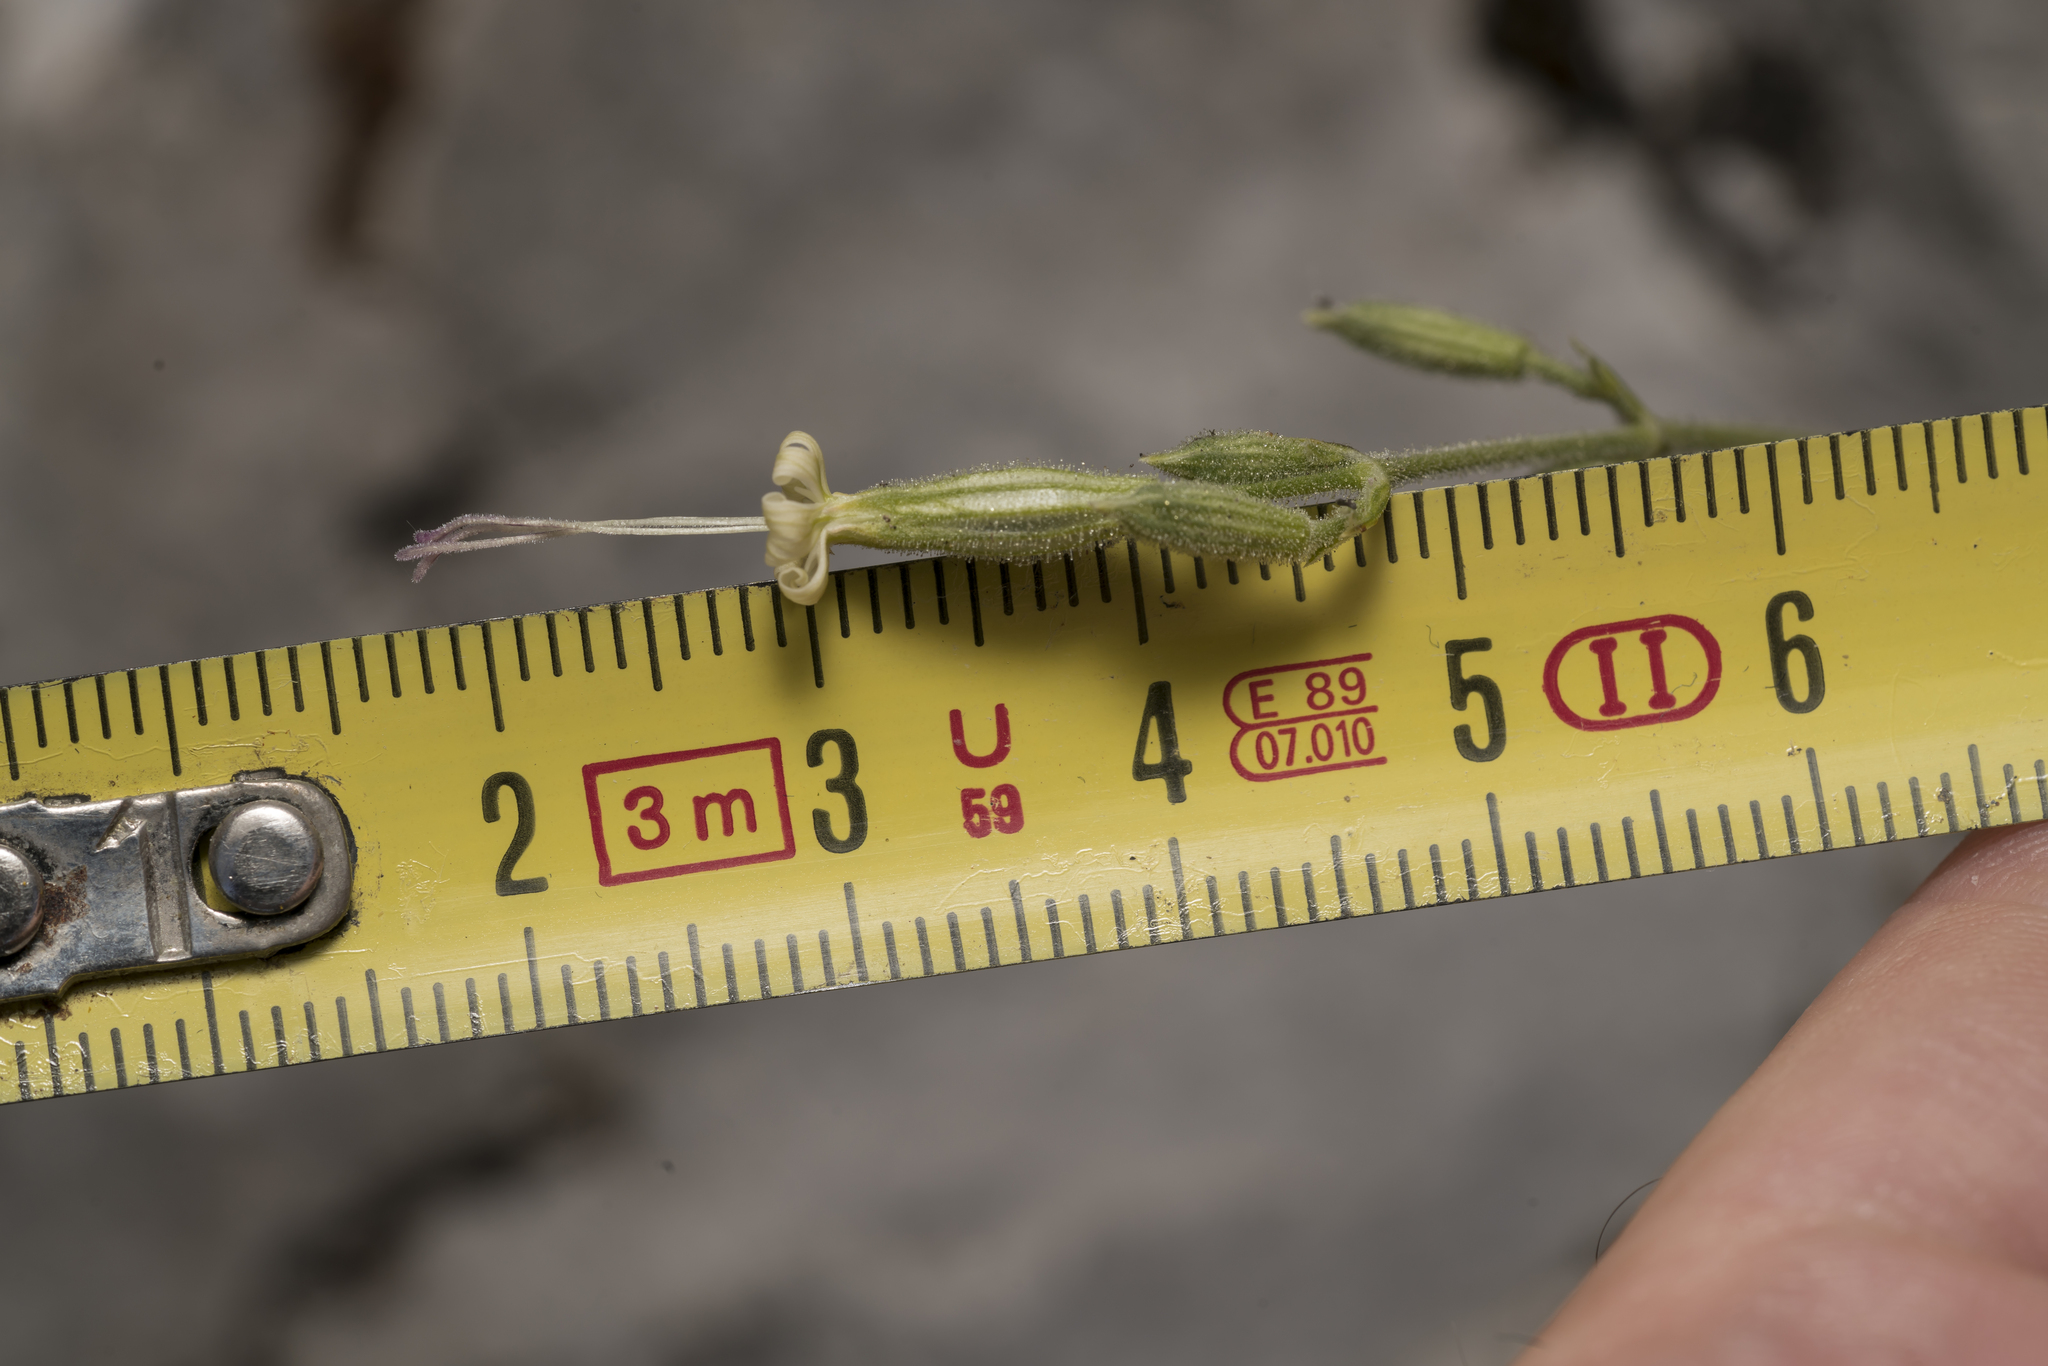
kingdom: Plantae
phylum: Tracheophyta
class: Magnoliopsida
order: Caryophyllales
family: Caryophyllaceae
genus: Silene
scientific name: Silene nutans
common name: Nottingham catchfly
